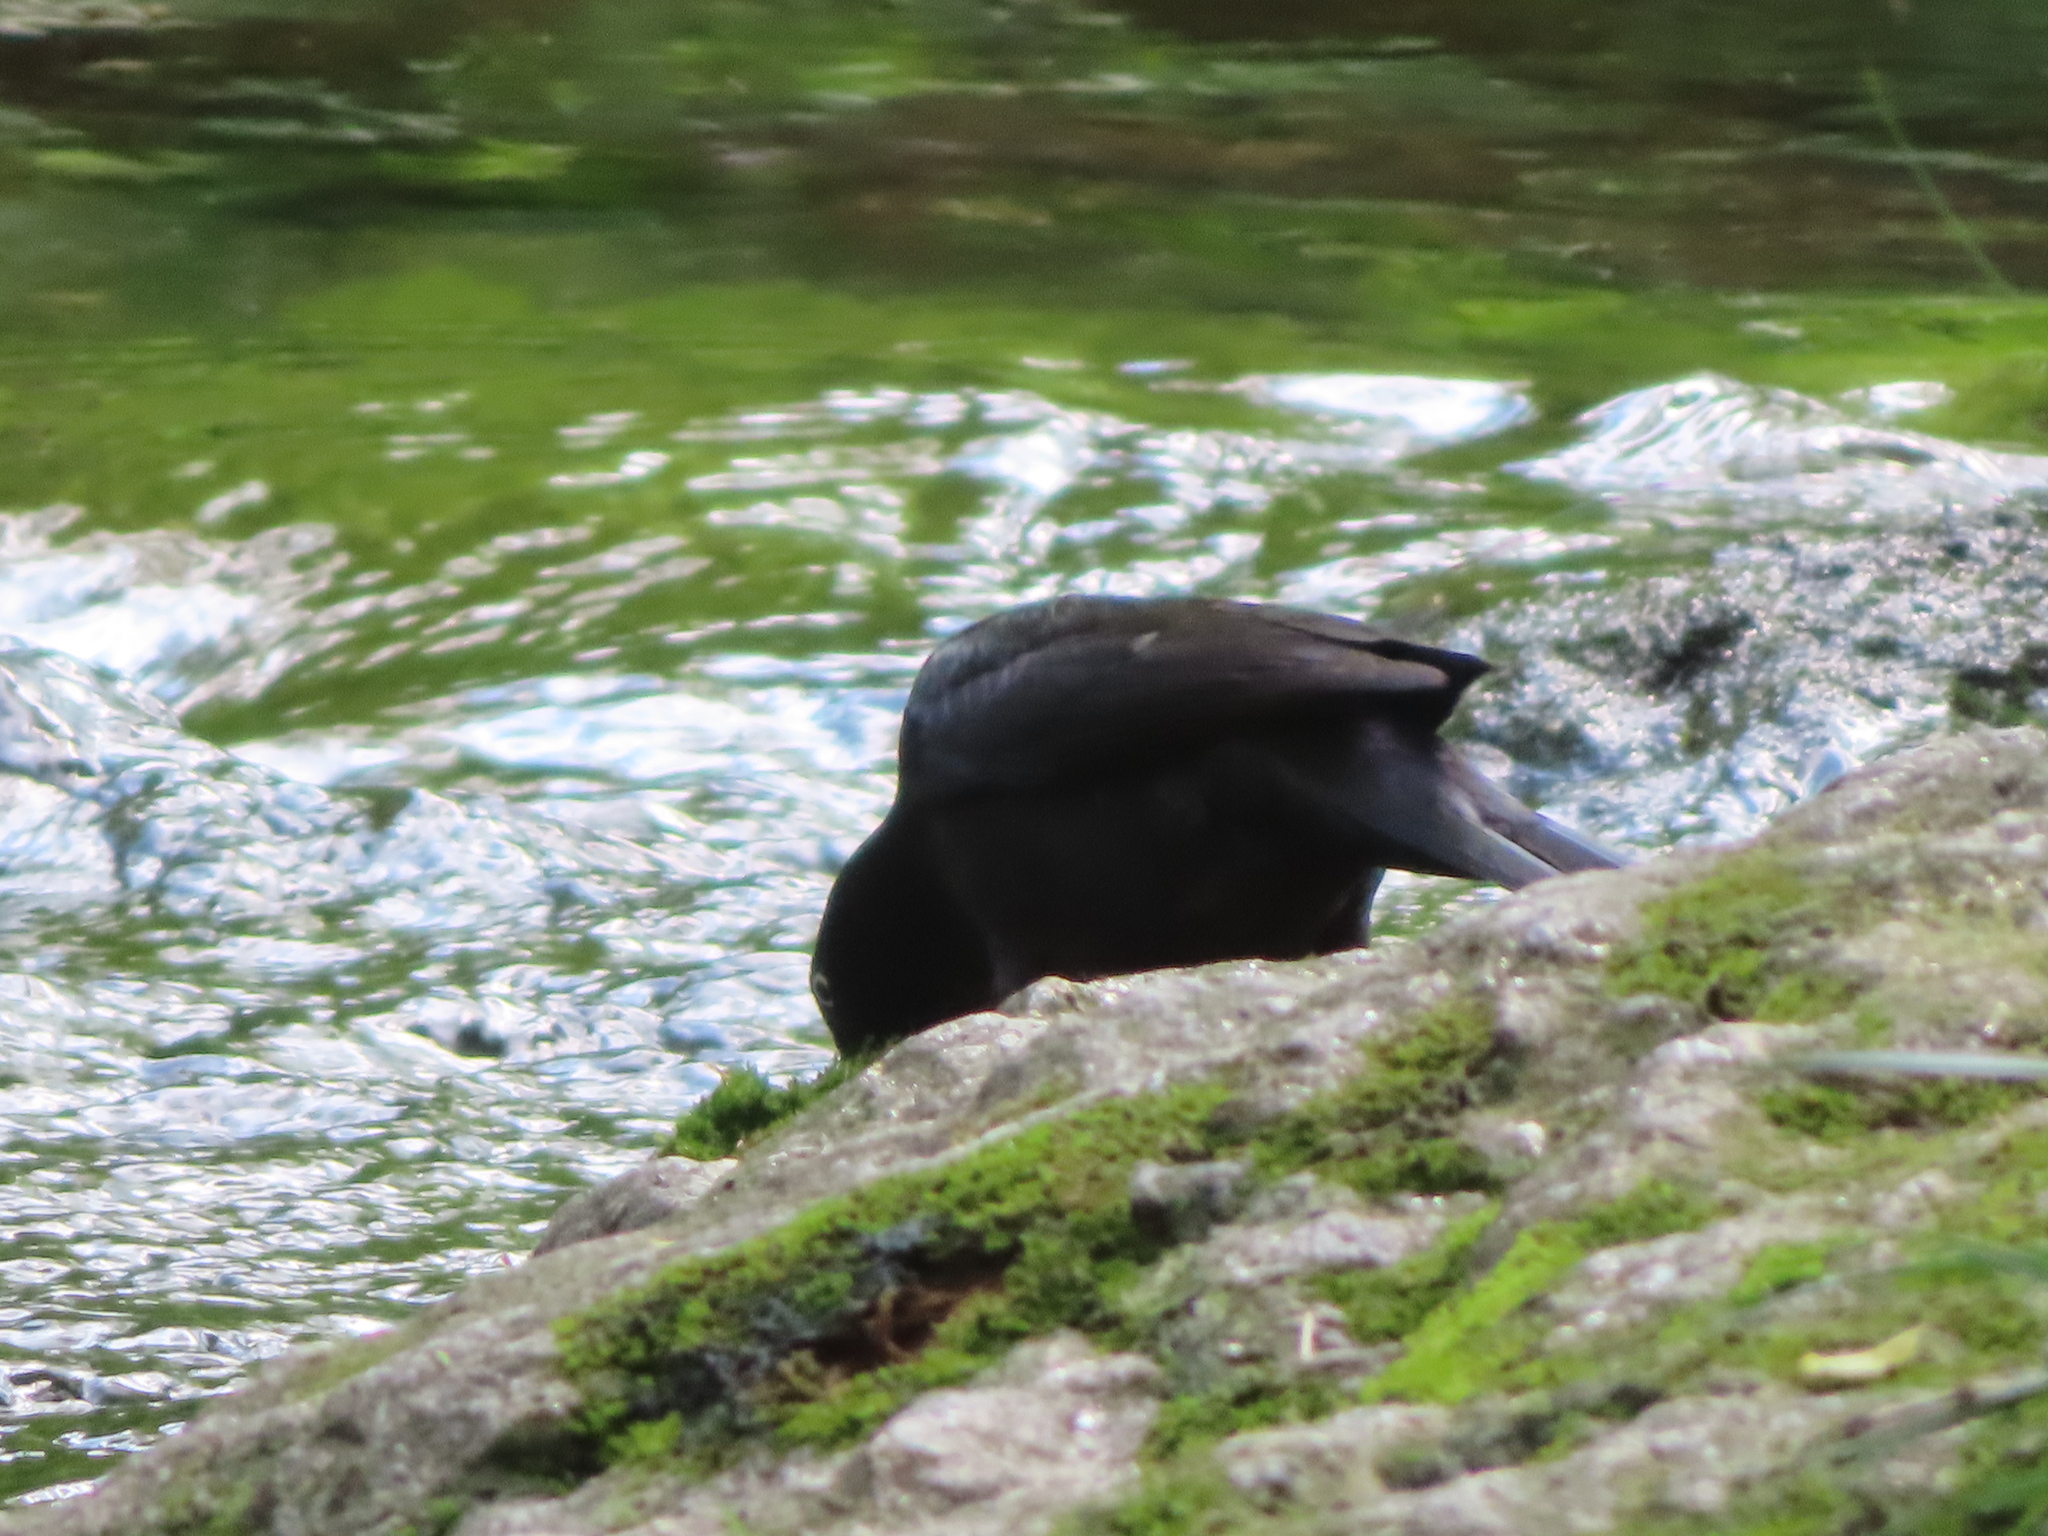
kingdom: Animalia
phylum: Chordata
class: Aves
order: Passeriformes
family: Icteridae
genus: Quiscalus
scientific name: Quiscalus quiscula
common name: Common grackle
